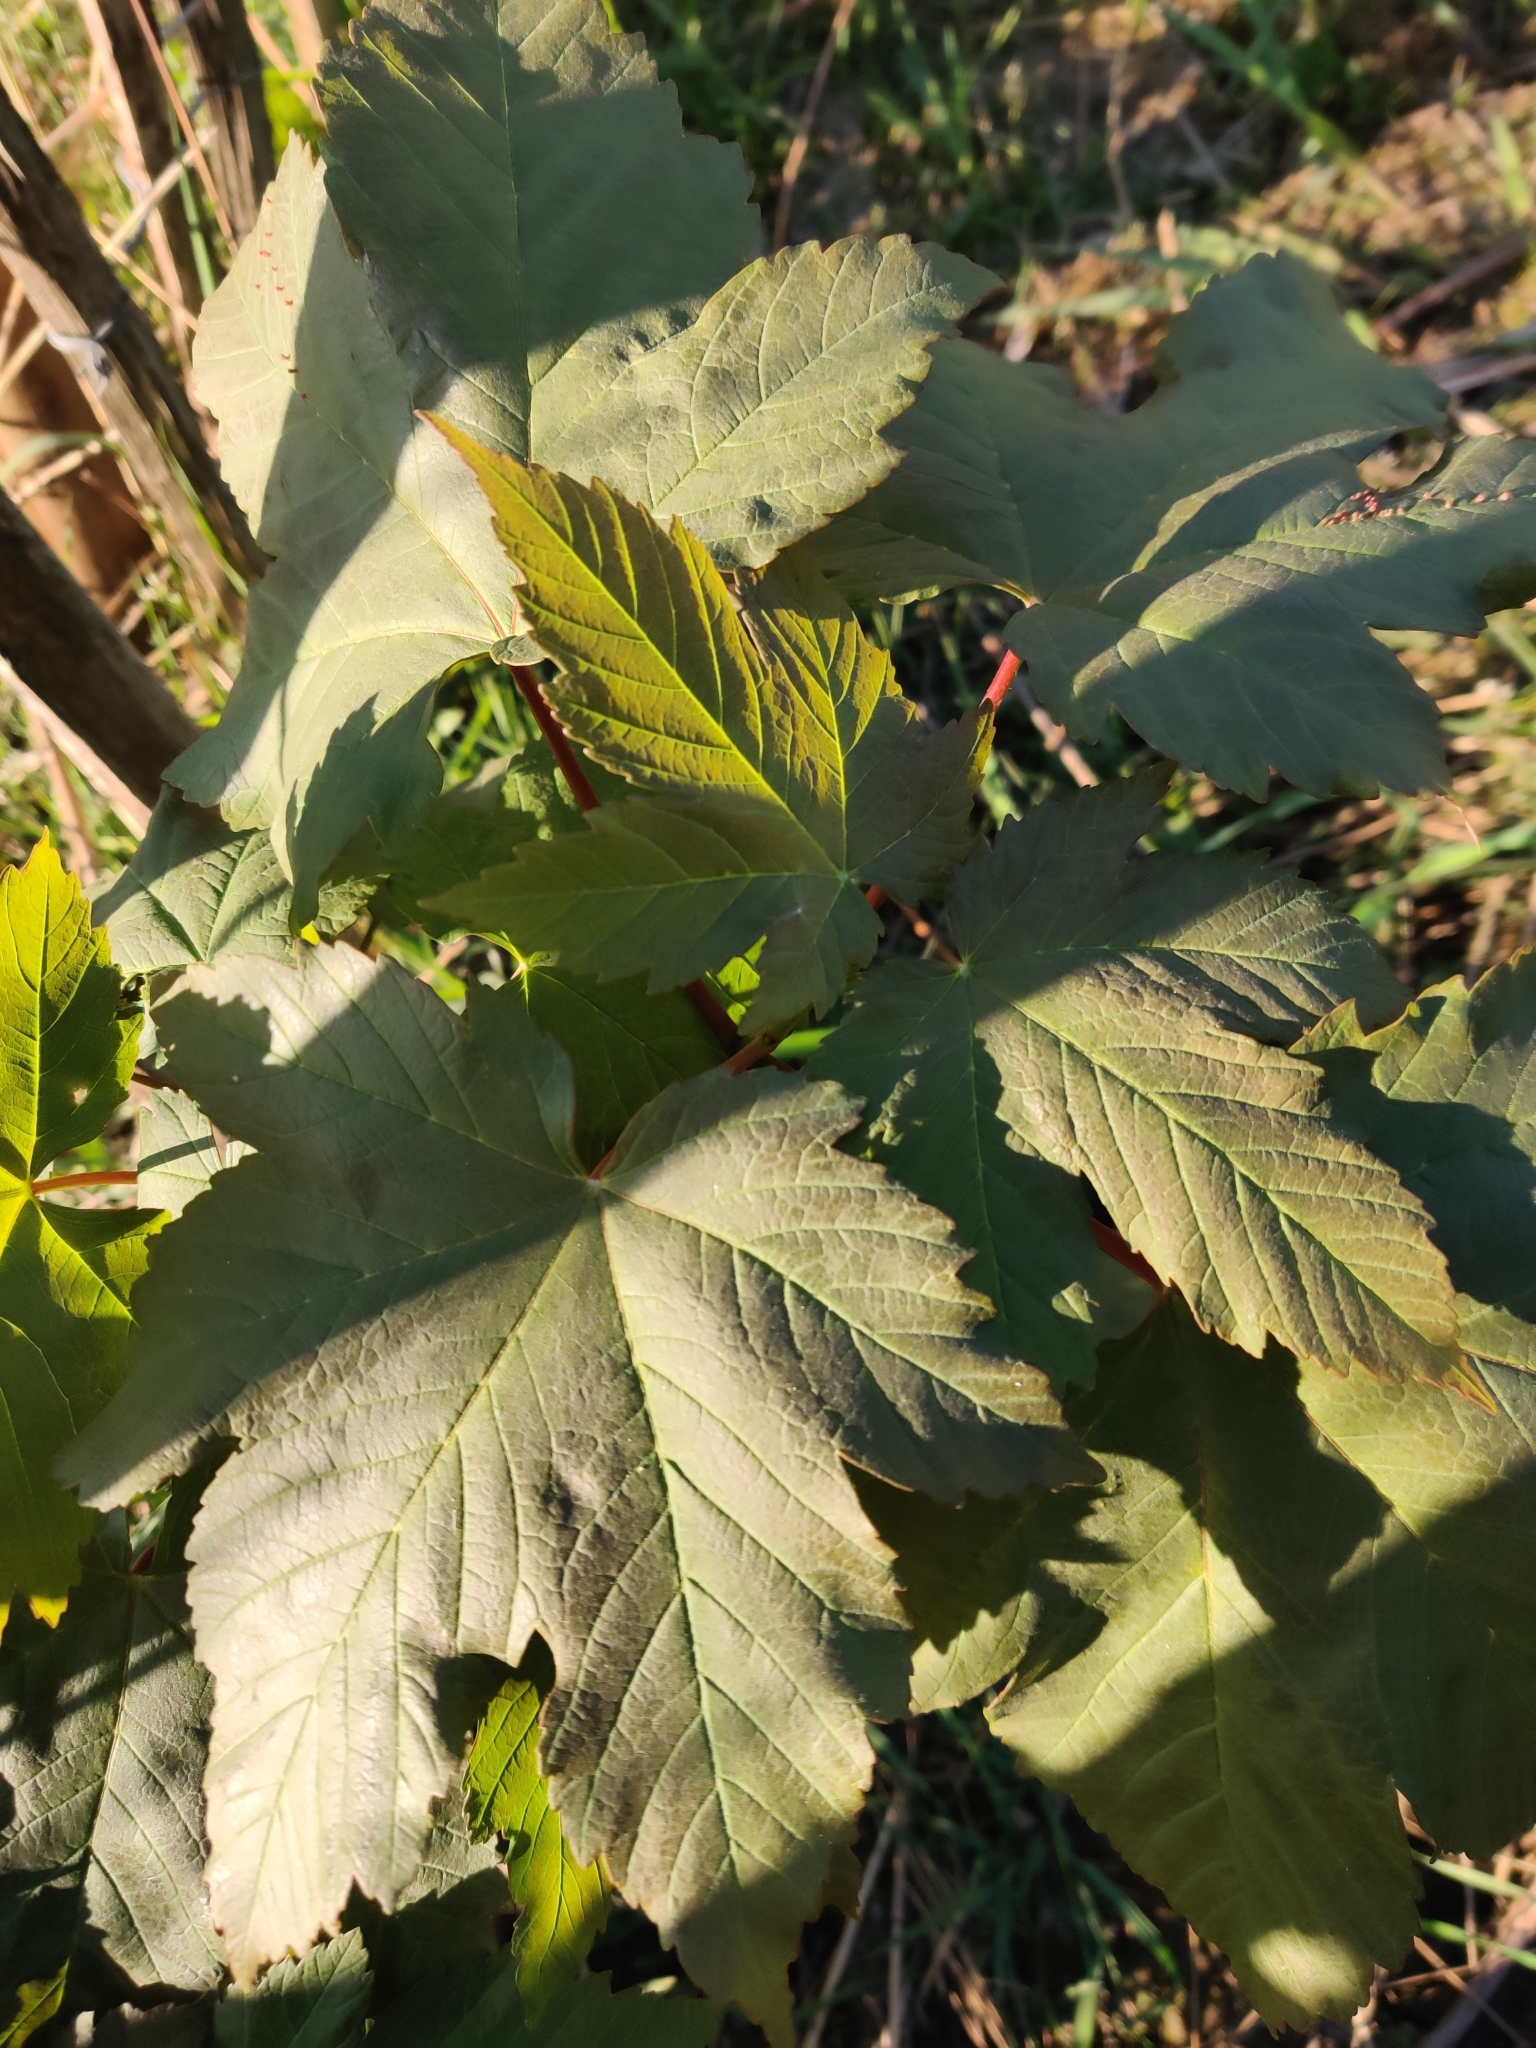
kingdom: Plantae
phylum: Tracheophyta
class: Magnoliopsida
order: Sapindales
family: Sapindaceae
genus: Acer
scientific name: Acer pseudoplatanus
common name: Sycamore
